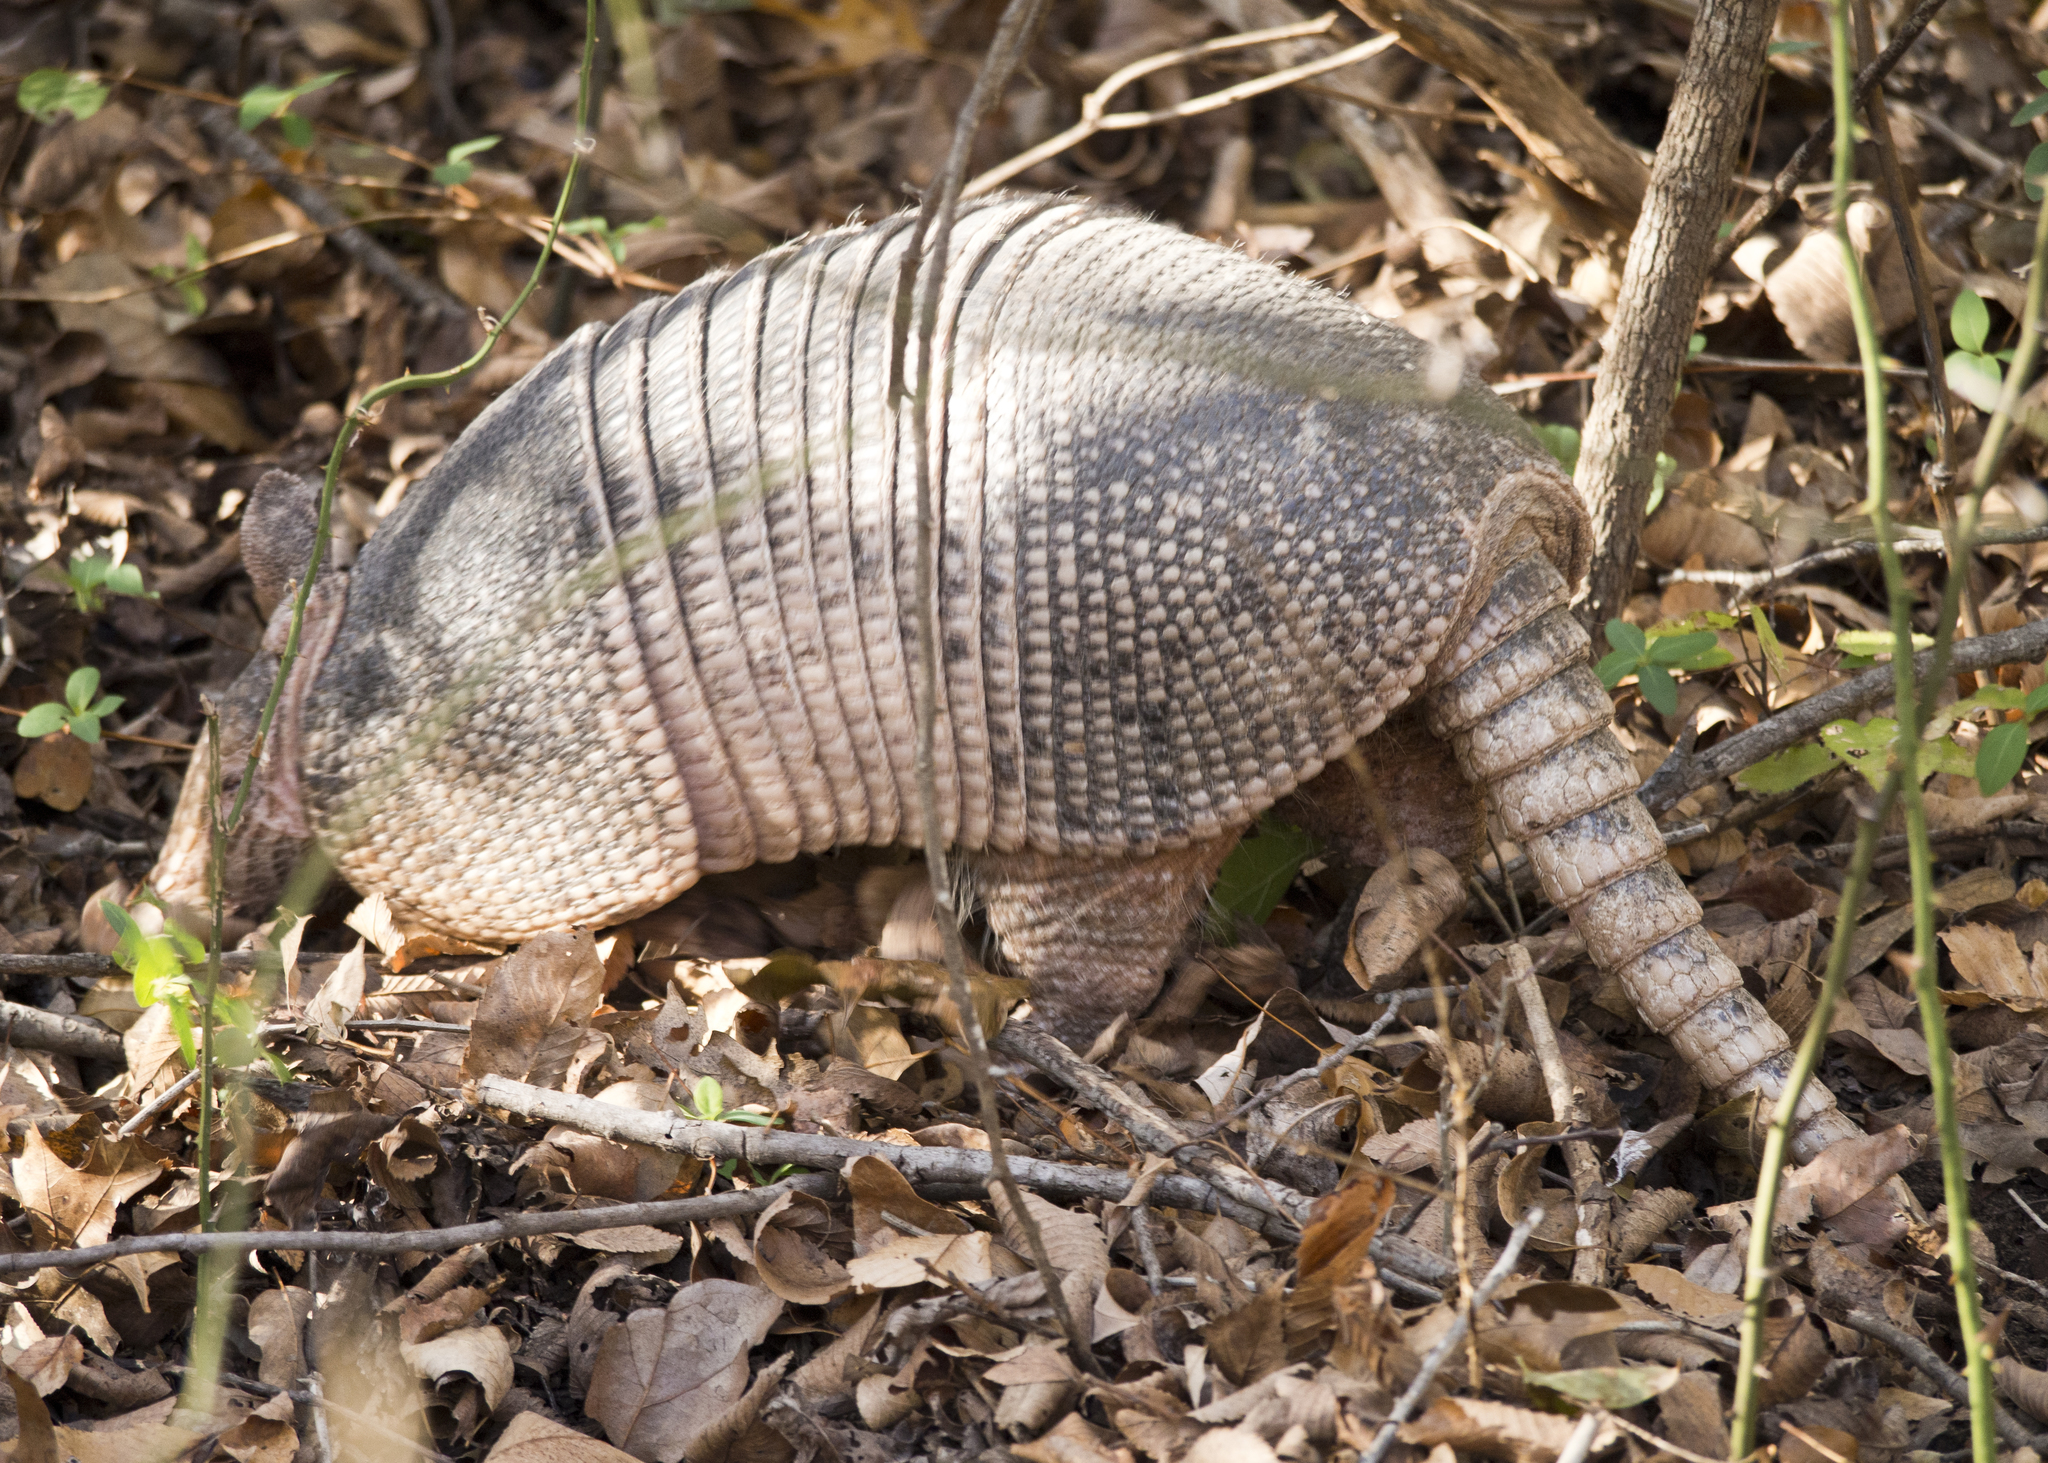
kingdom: Animalia
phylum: Chordata
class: Mammalia
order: Cingulata
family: Dasypodidae
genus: Dasypus
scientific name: Dasypus novemcinctus
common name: Nine-banded armadillo
